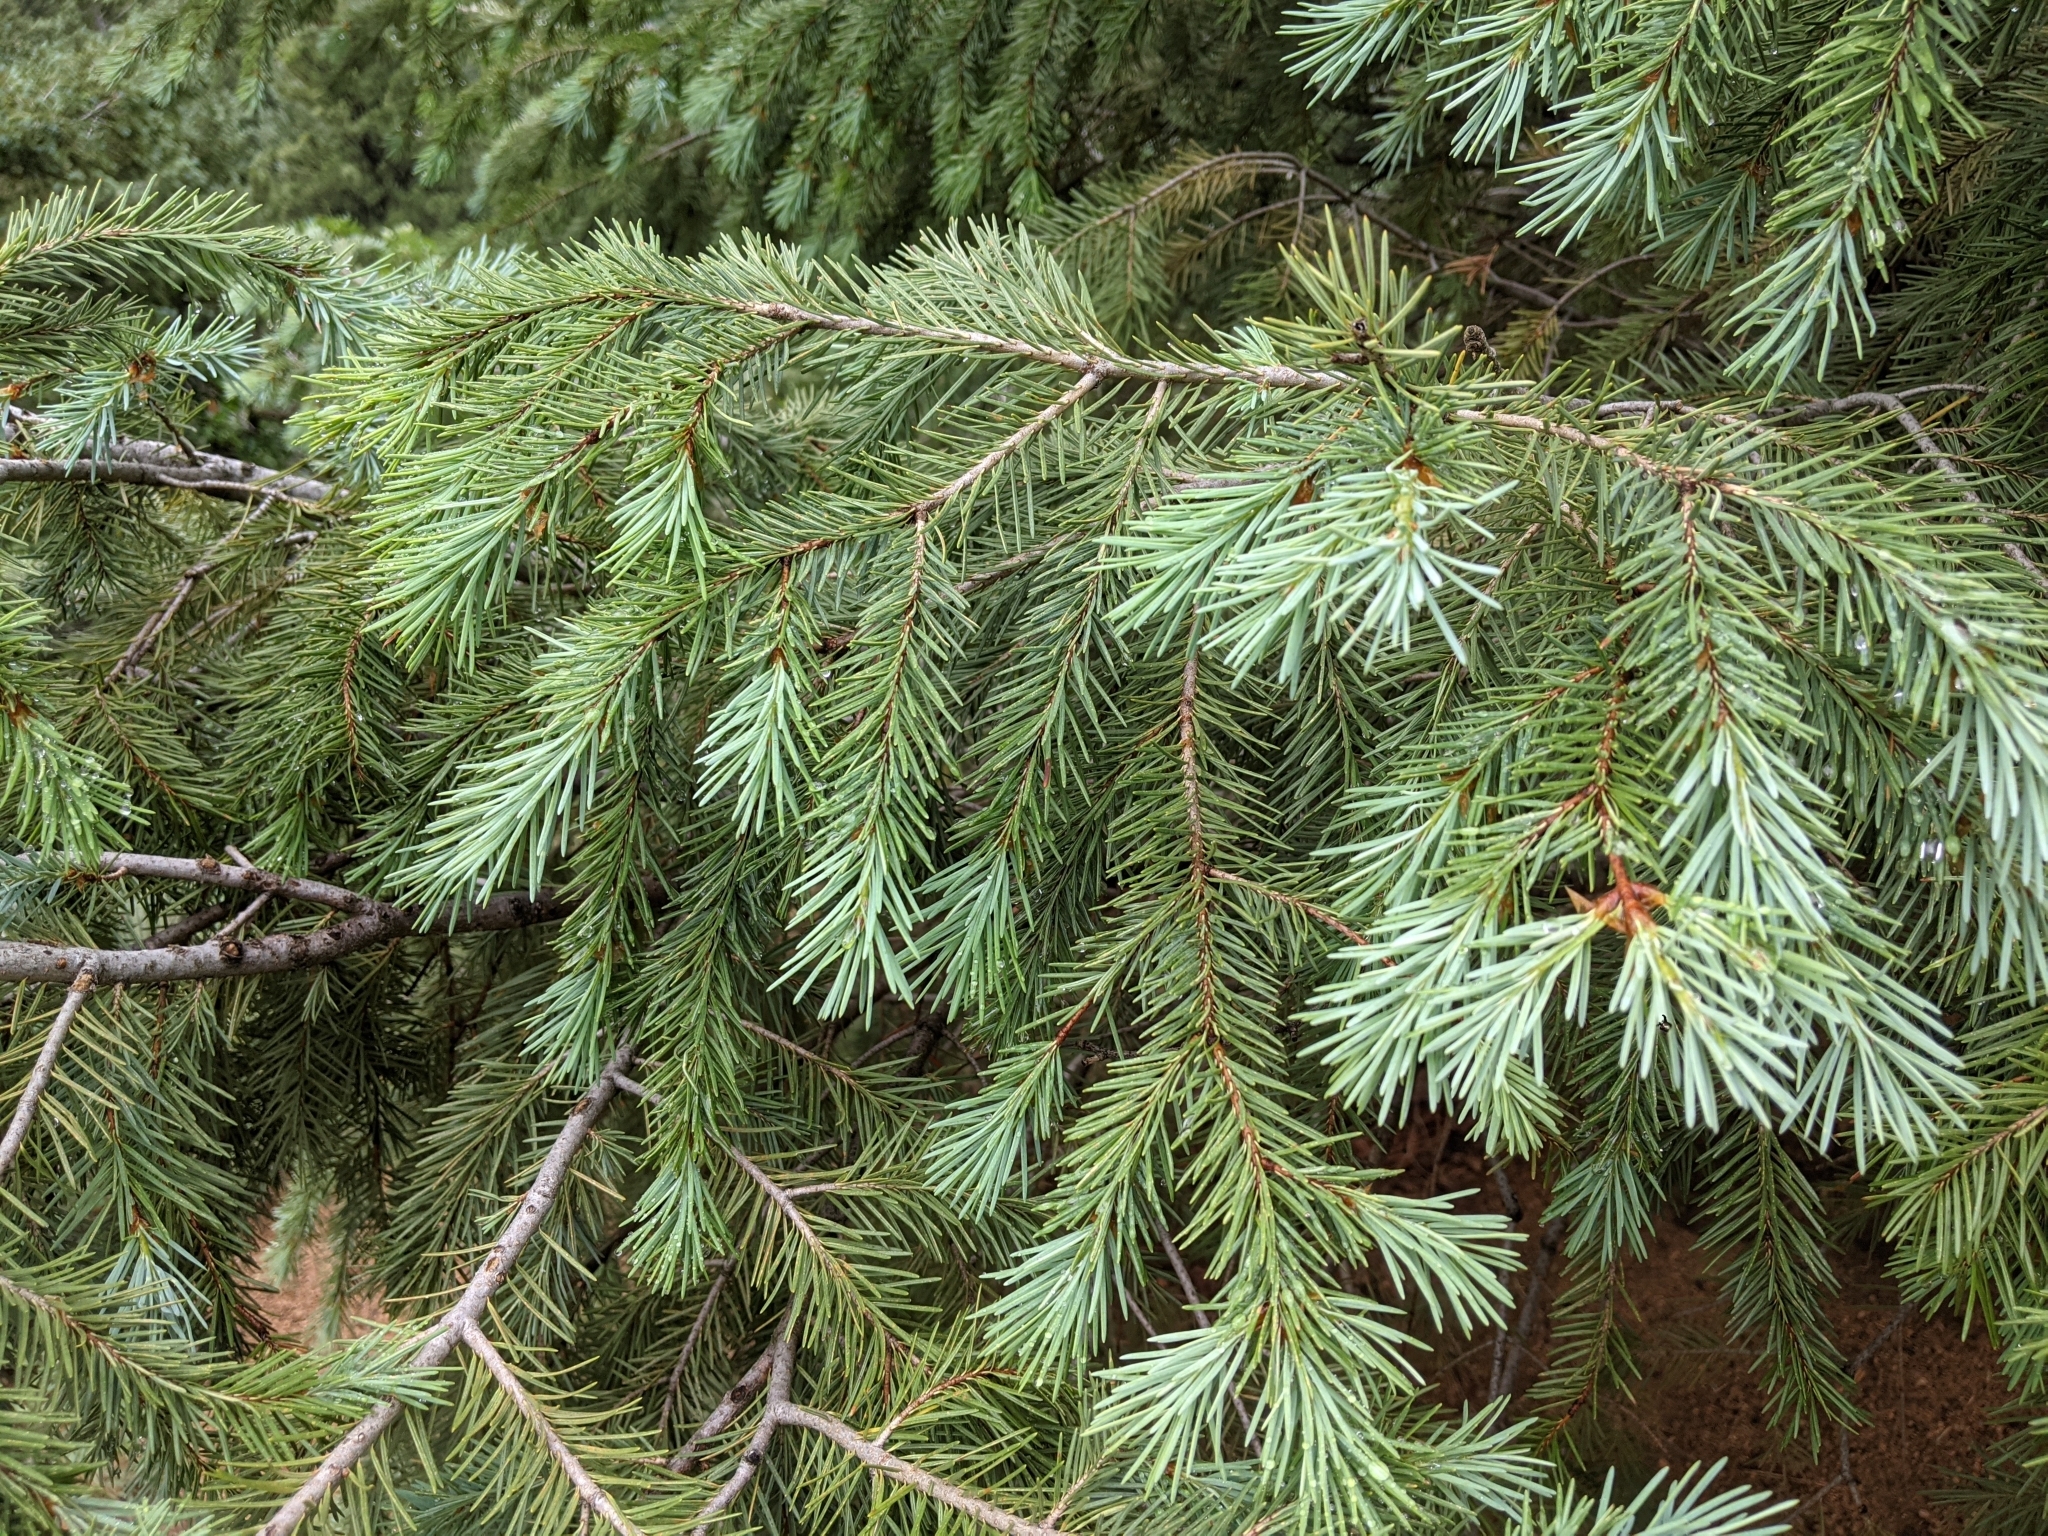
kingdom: Plantae
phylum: Tracheophyta
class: Pinopsida
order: Pinales
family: Pinaceae
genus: Pseudotsuga
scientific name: Pseudotsuga menziesii
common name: Douglas fir
